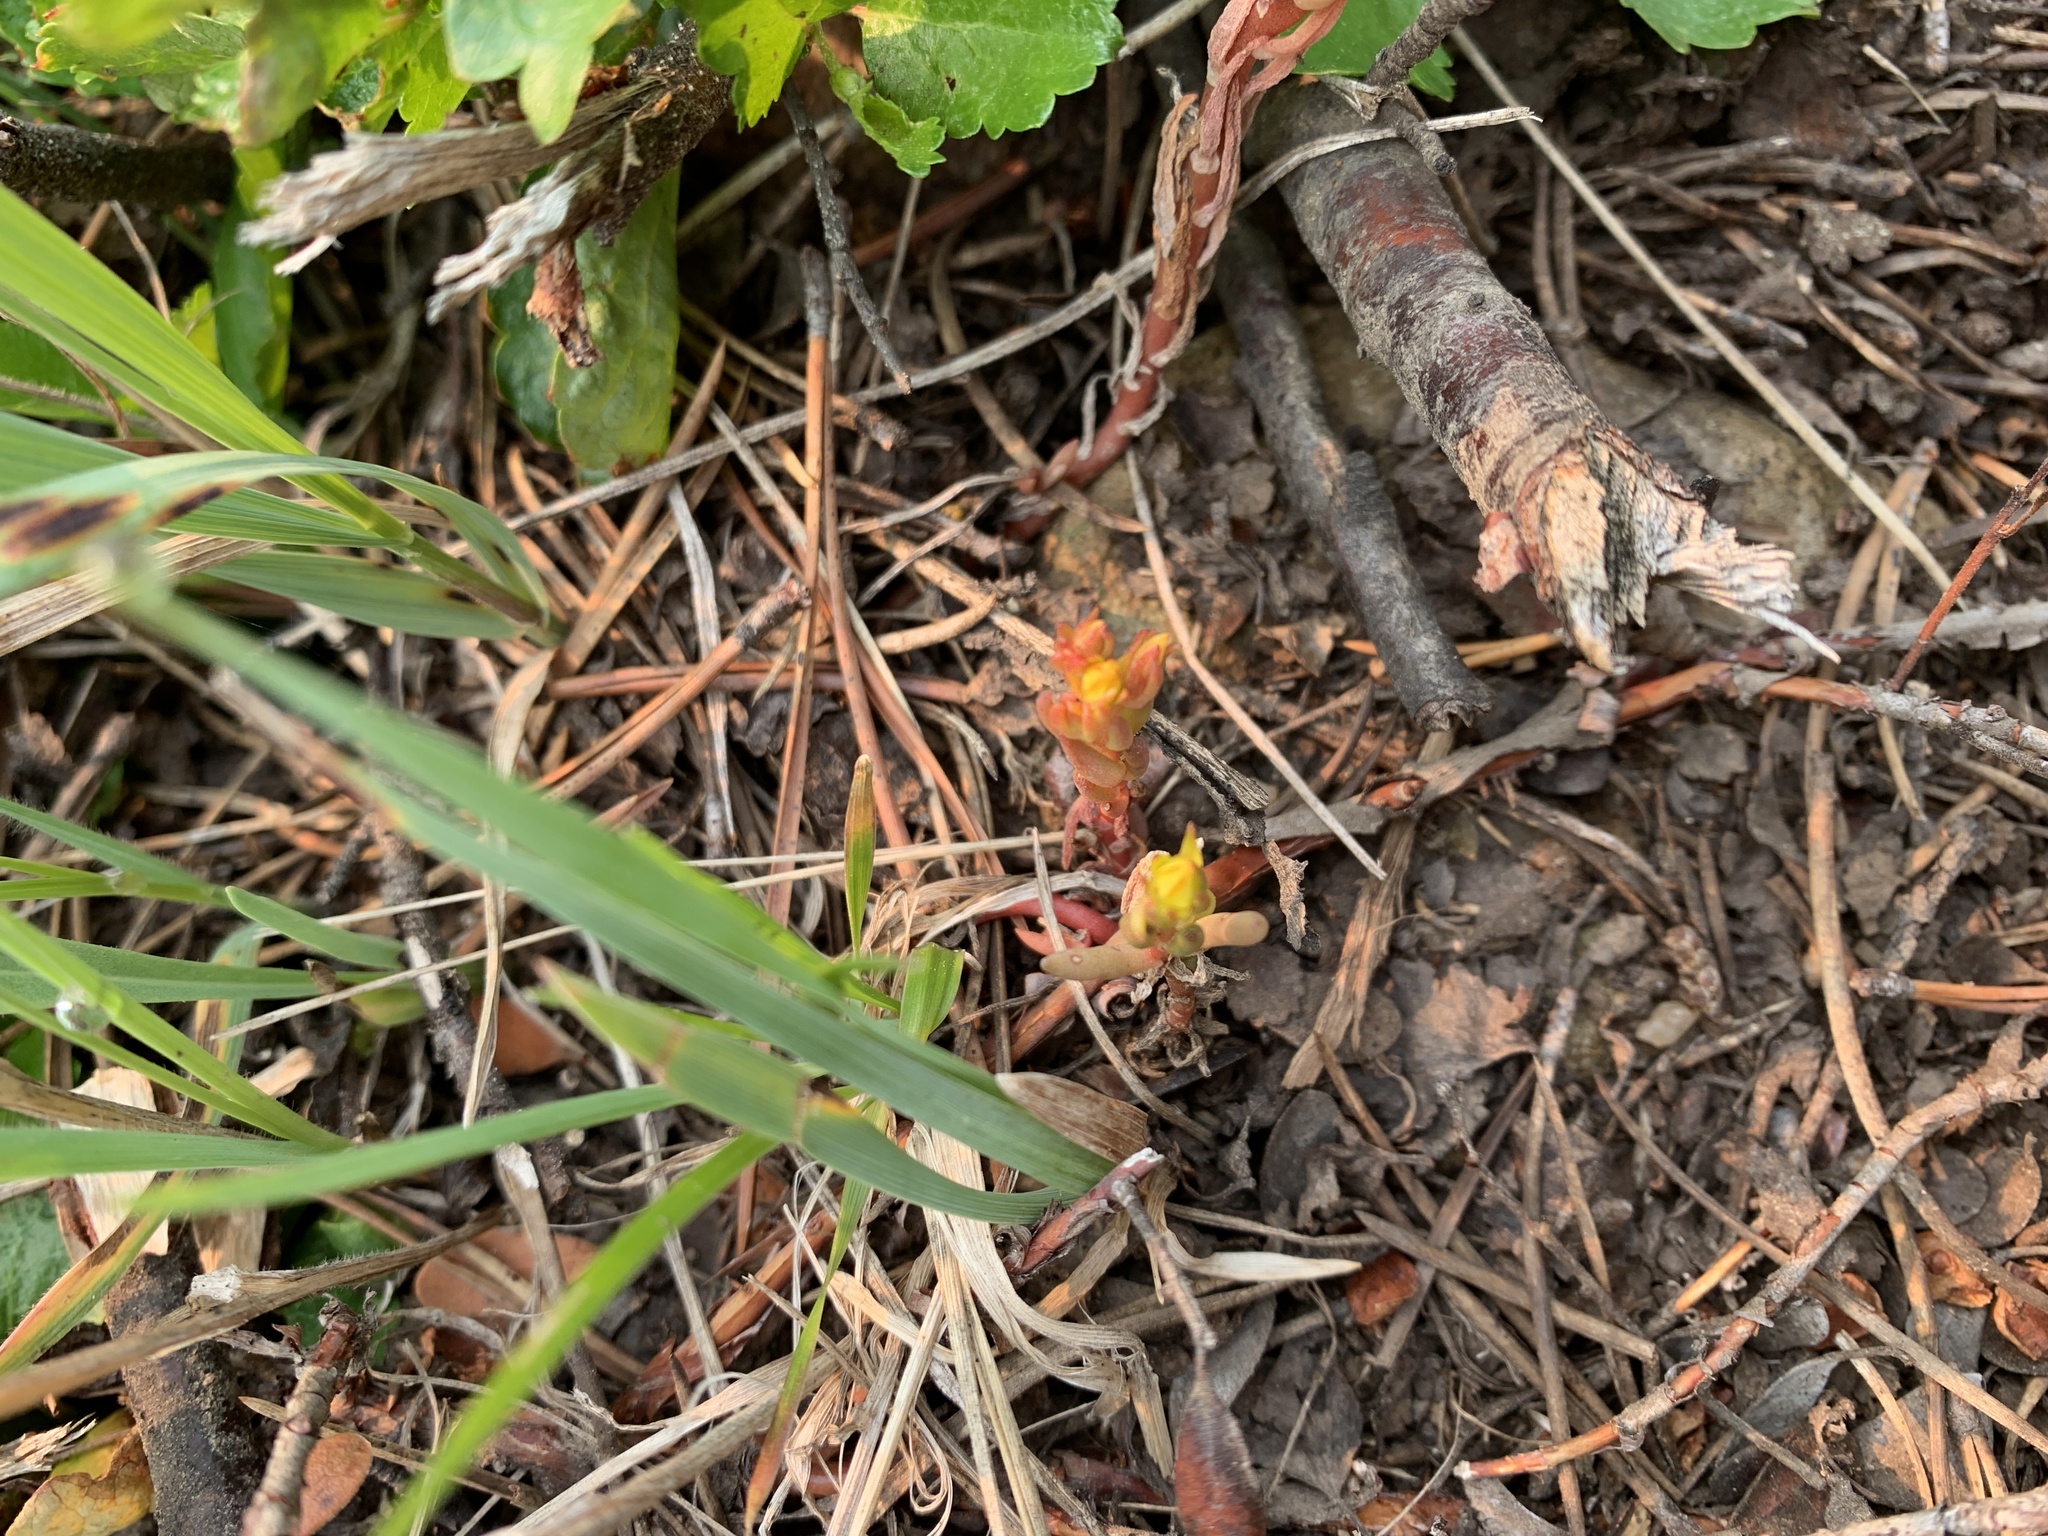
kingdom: Plantae
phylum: Tracheophyta
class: Magnoliopsida
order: Saxifragales
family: Crassulaceae
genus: Sedum
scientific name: Sedum lanceolatum
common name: Common stonecrop
